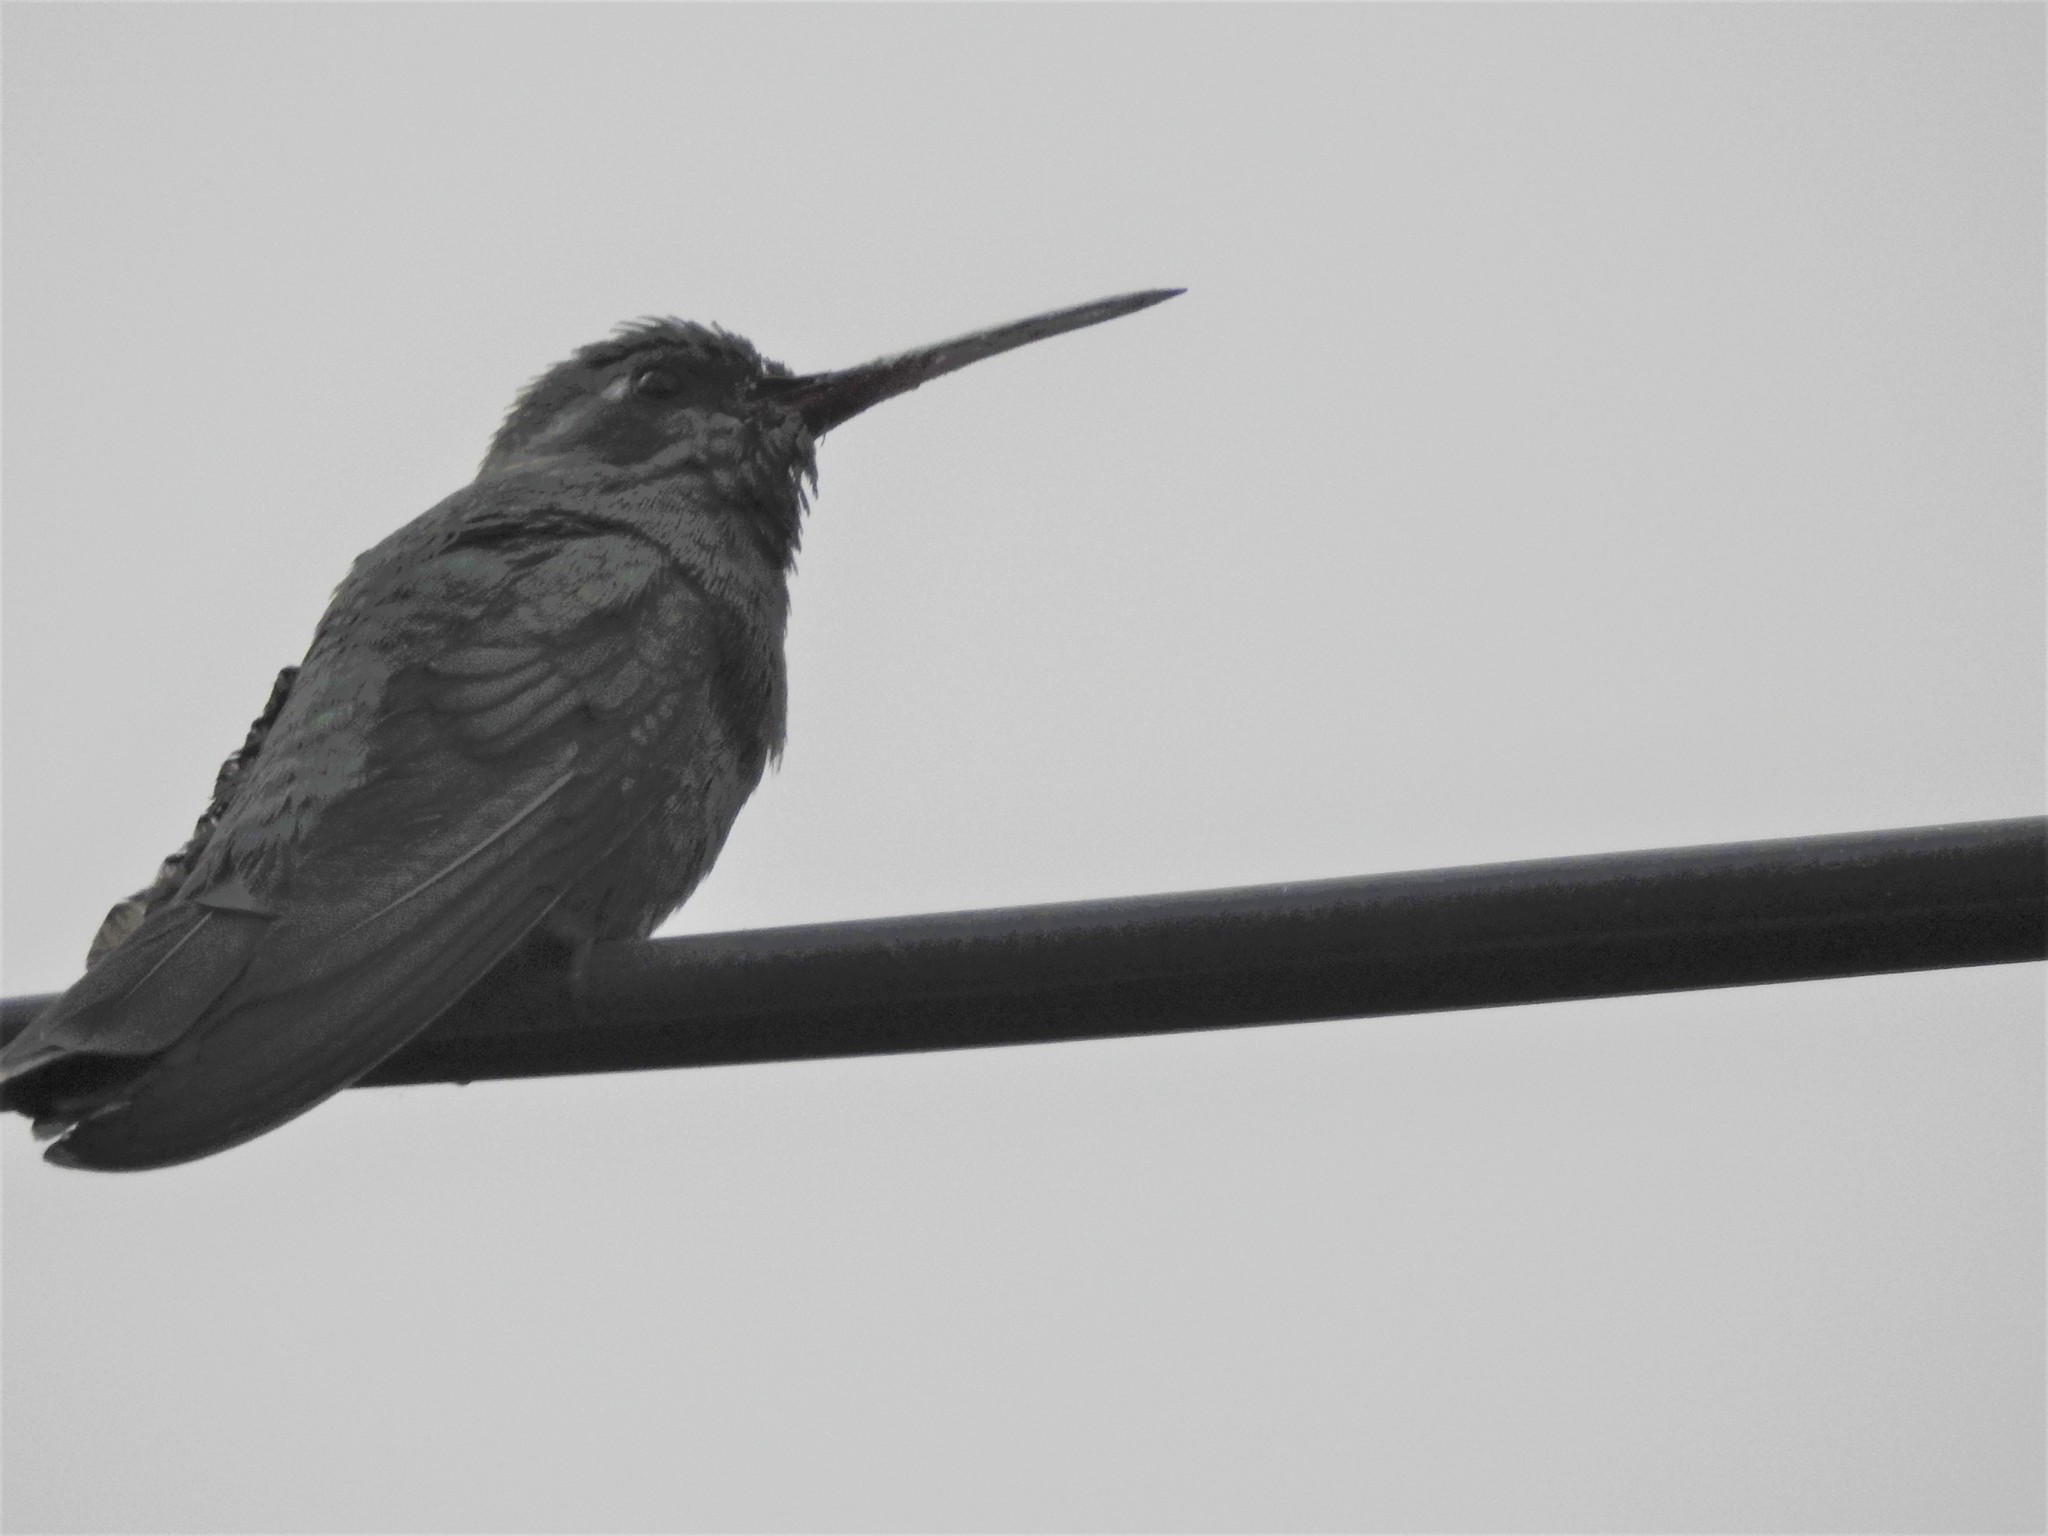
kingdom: Animalia
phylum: Chordata
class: Aves
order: Apodiformes
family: Trochilidae
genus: Cynanthus
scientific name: Cynanthus latirostris
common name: Broad-billed hummingbird
